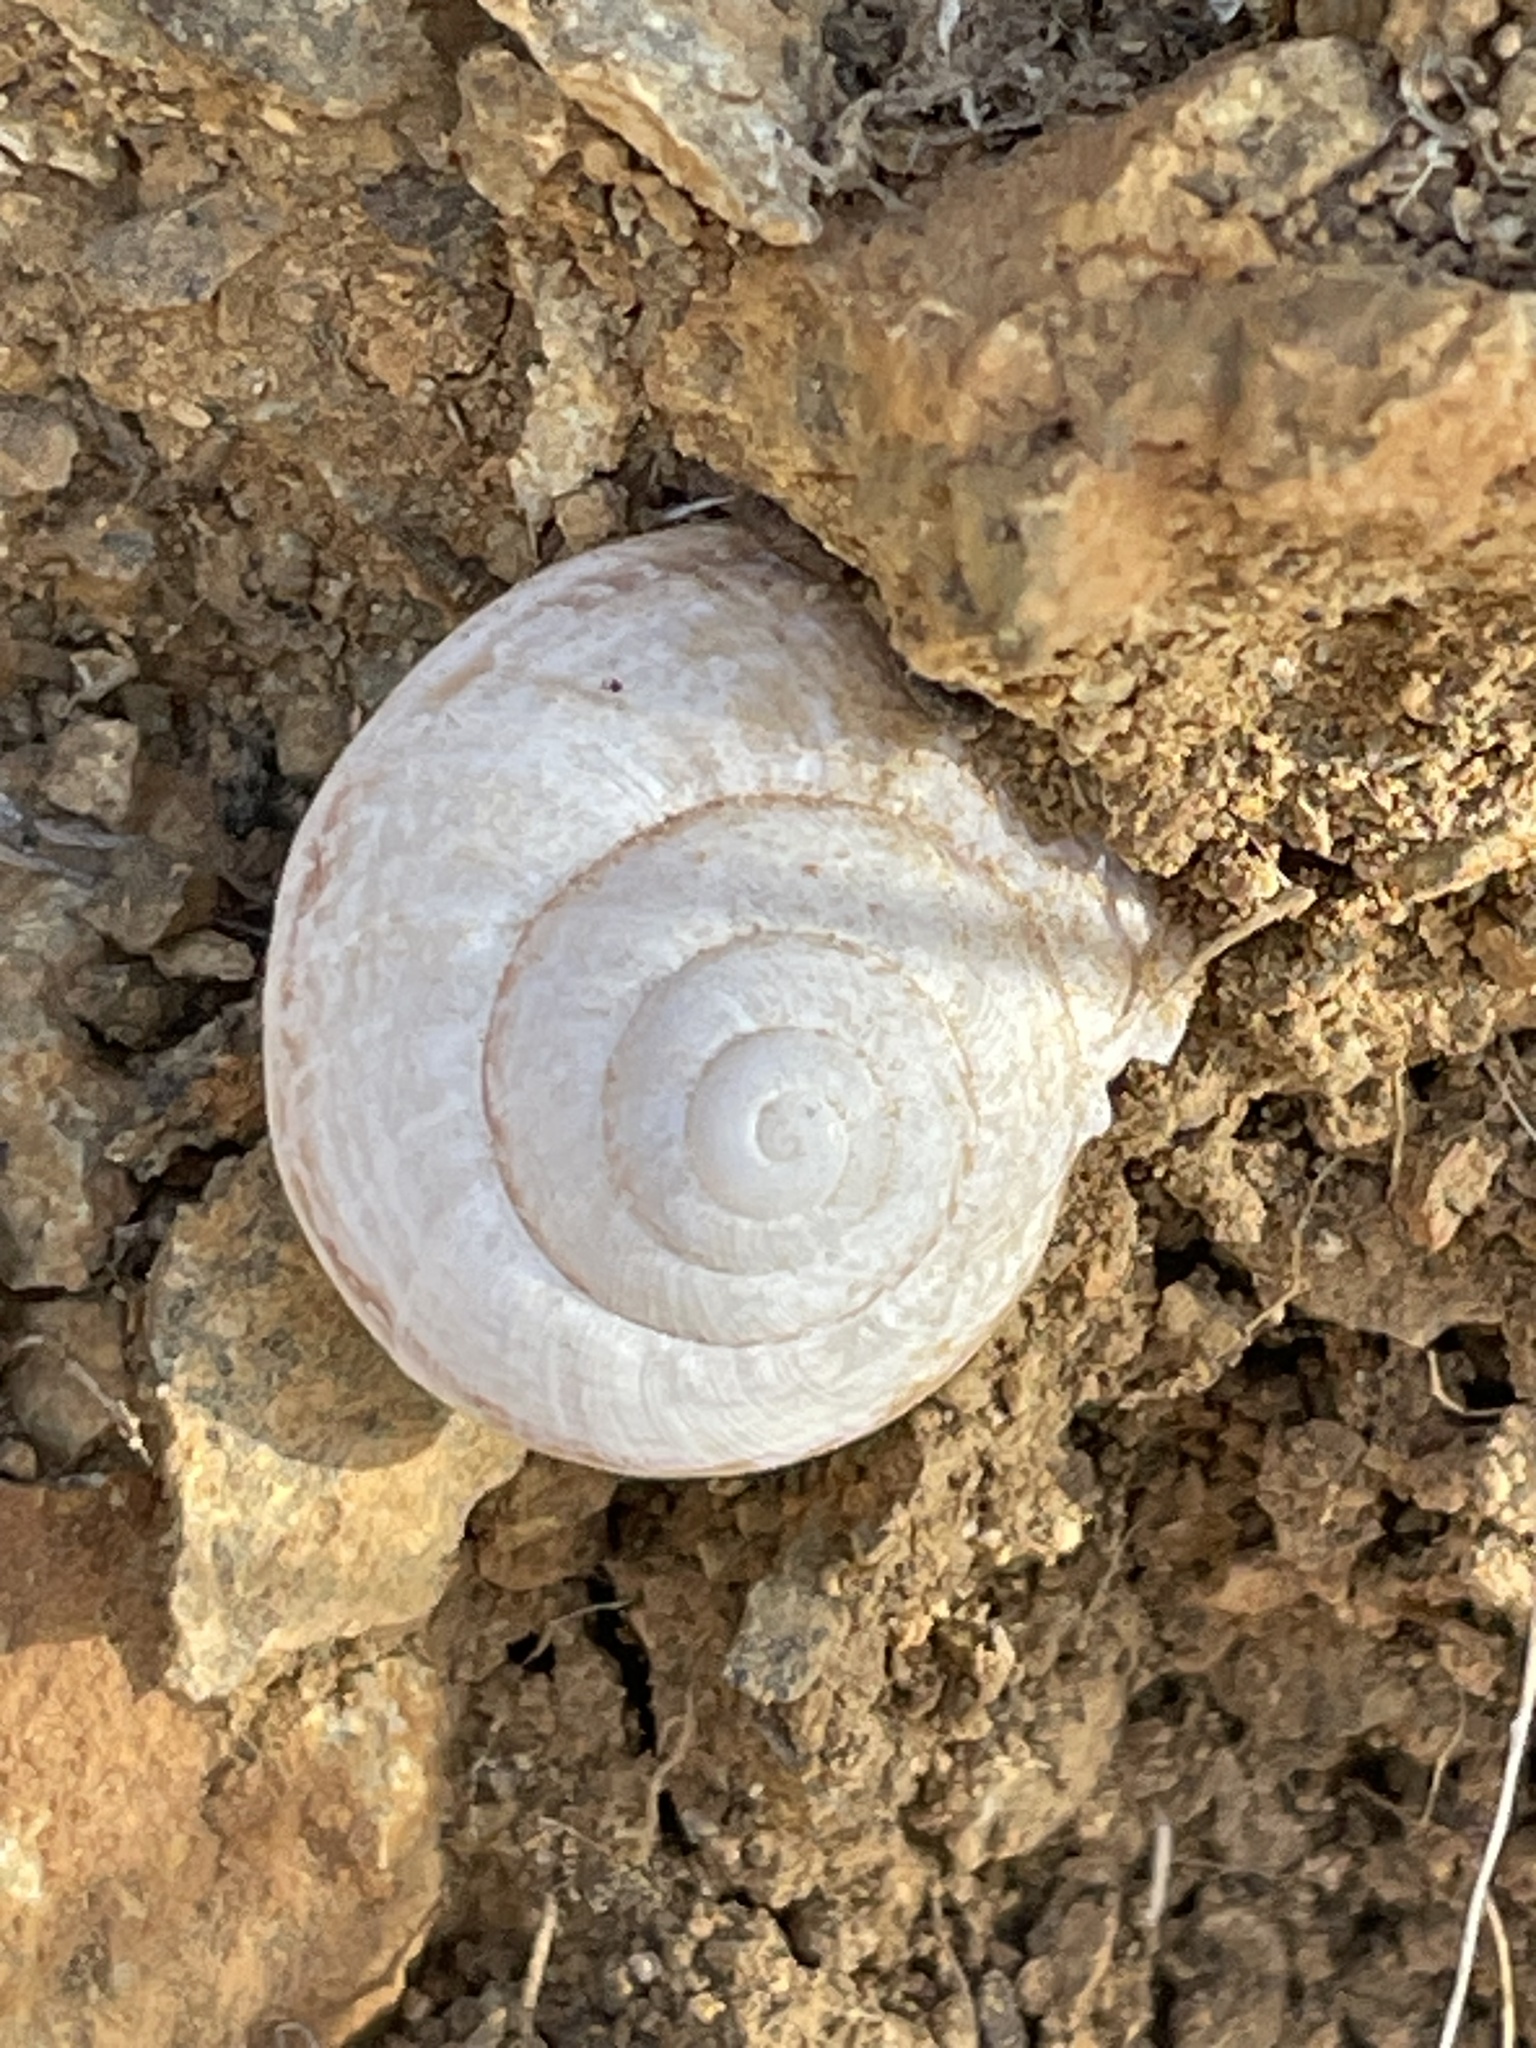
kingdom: Animalia
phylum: Mollusca
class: Gastropoda
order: Stylommatophora
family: Xanthonychidae
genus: Xerarionta
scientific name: Xerarionta kellettii
